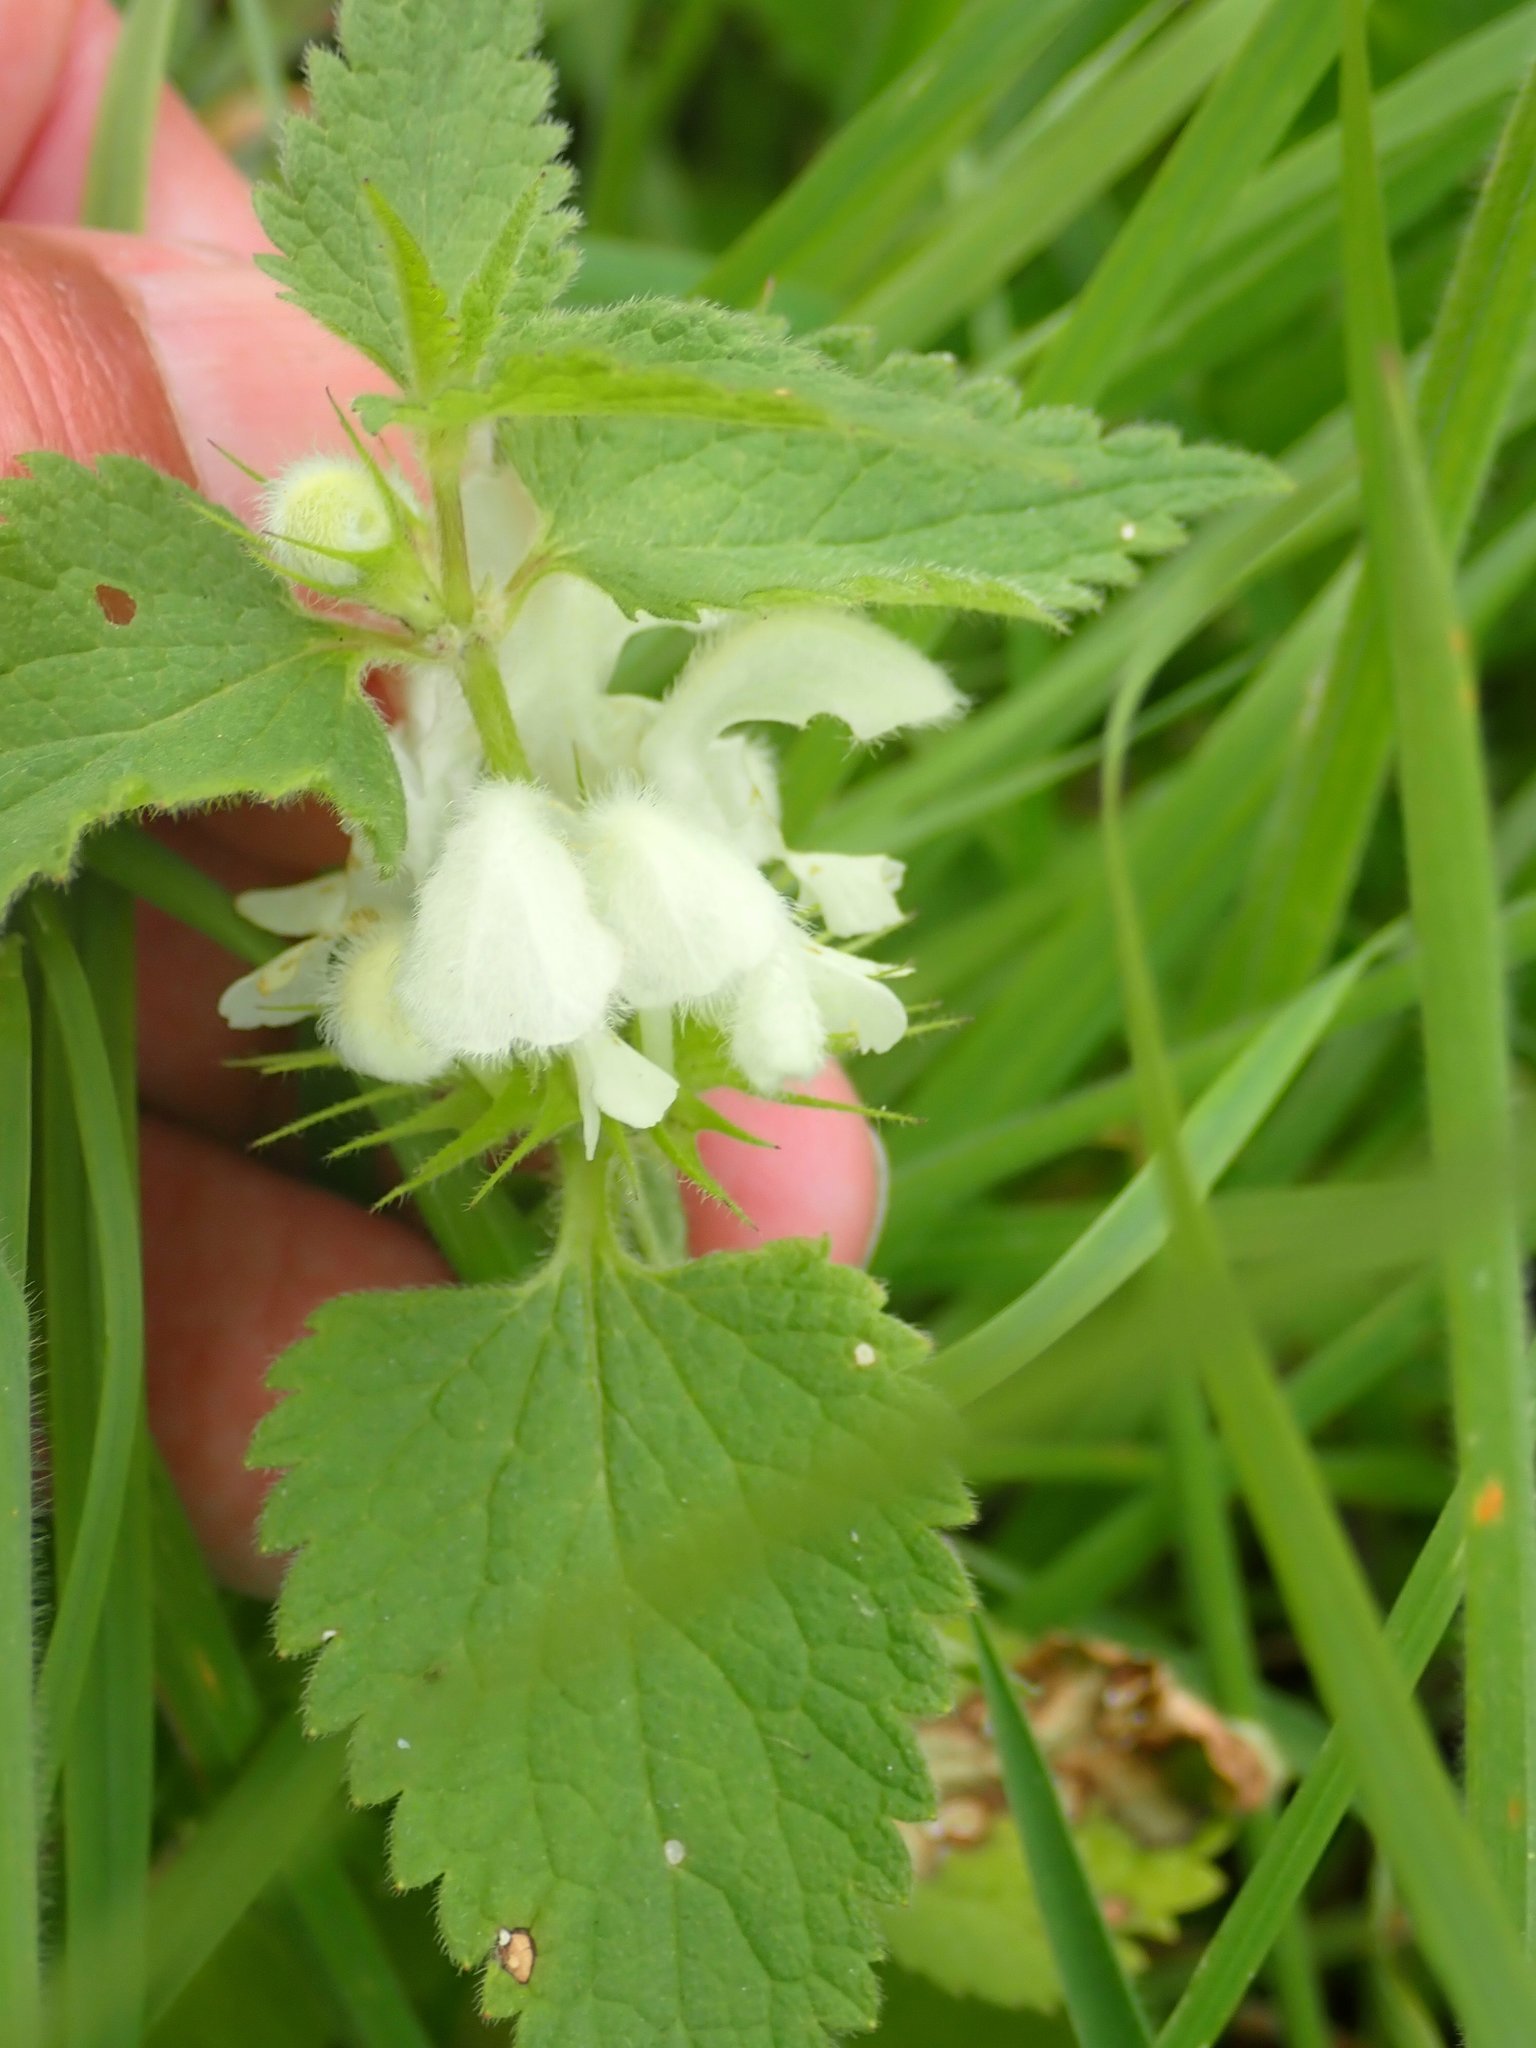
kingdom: Plantae
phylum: Tracheophyta
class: Magnoliopsida
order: Lamiales
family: Lamiaceae
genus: Lamium
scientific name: Lamium album
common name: White dead-nettle
